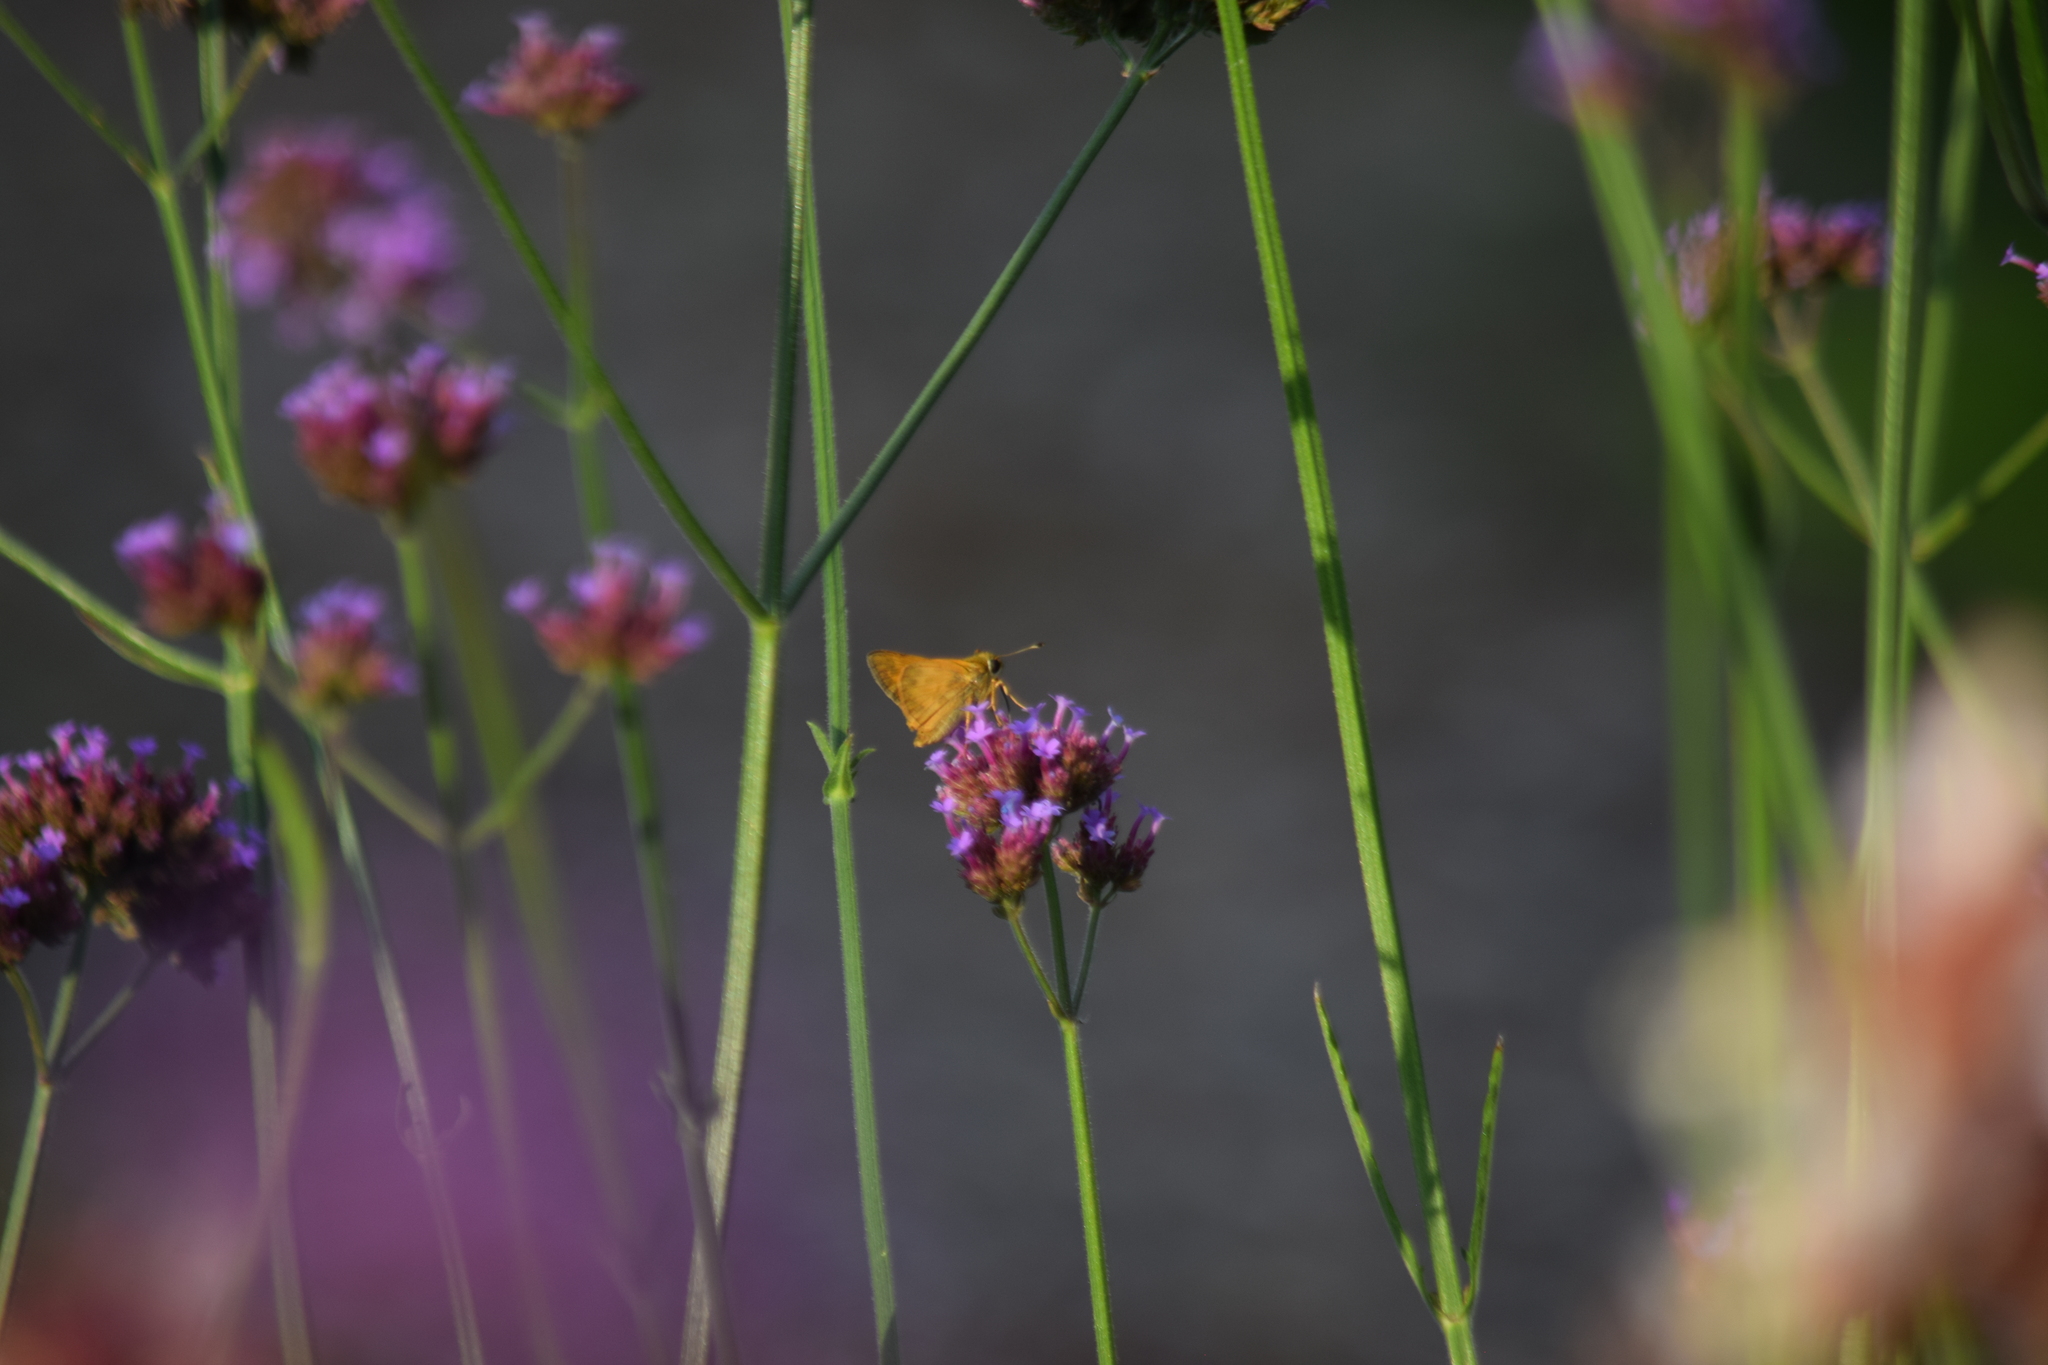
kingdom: Animalia
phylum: Arthropoda
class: Insecta
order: Lepidoptera
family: Hesperiidae
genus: Atalopedes
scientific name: Atalopedes
